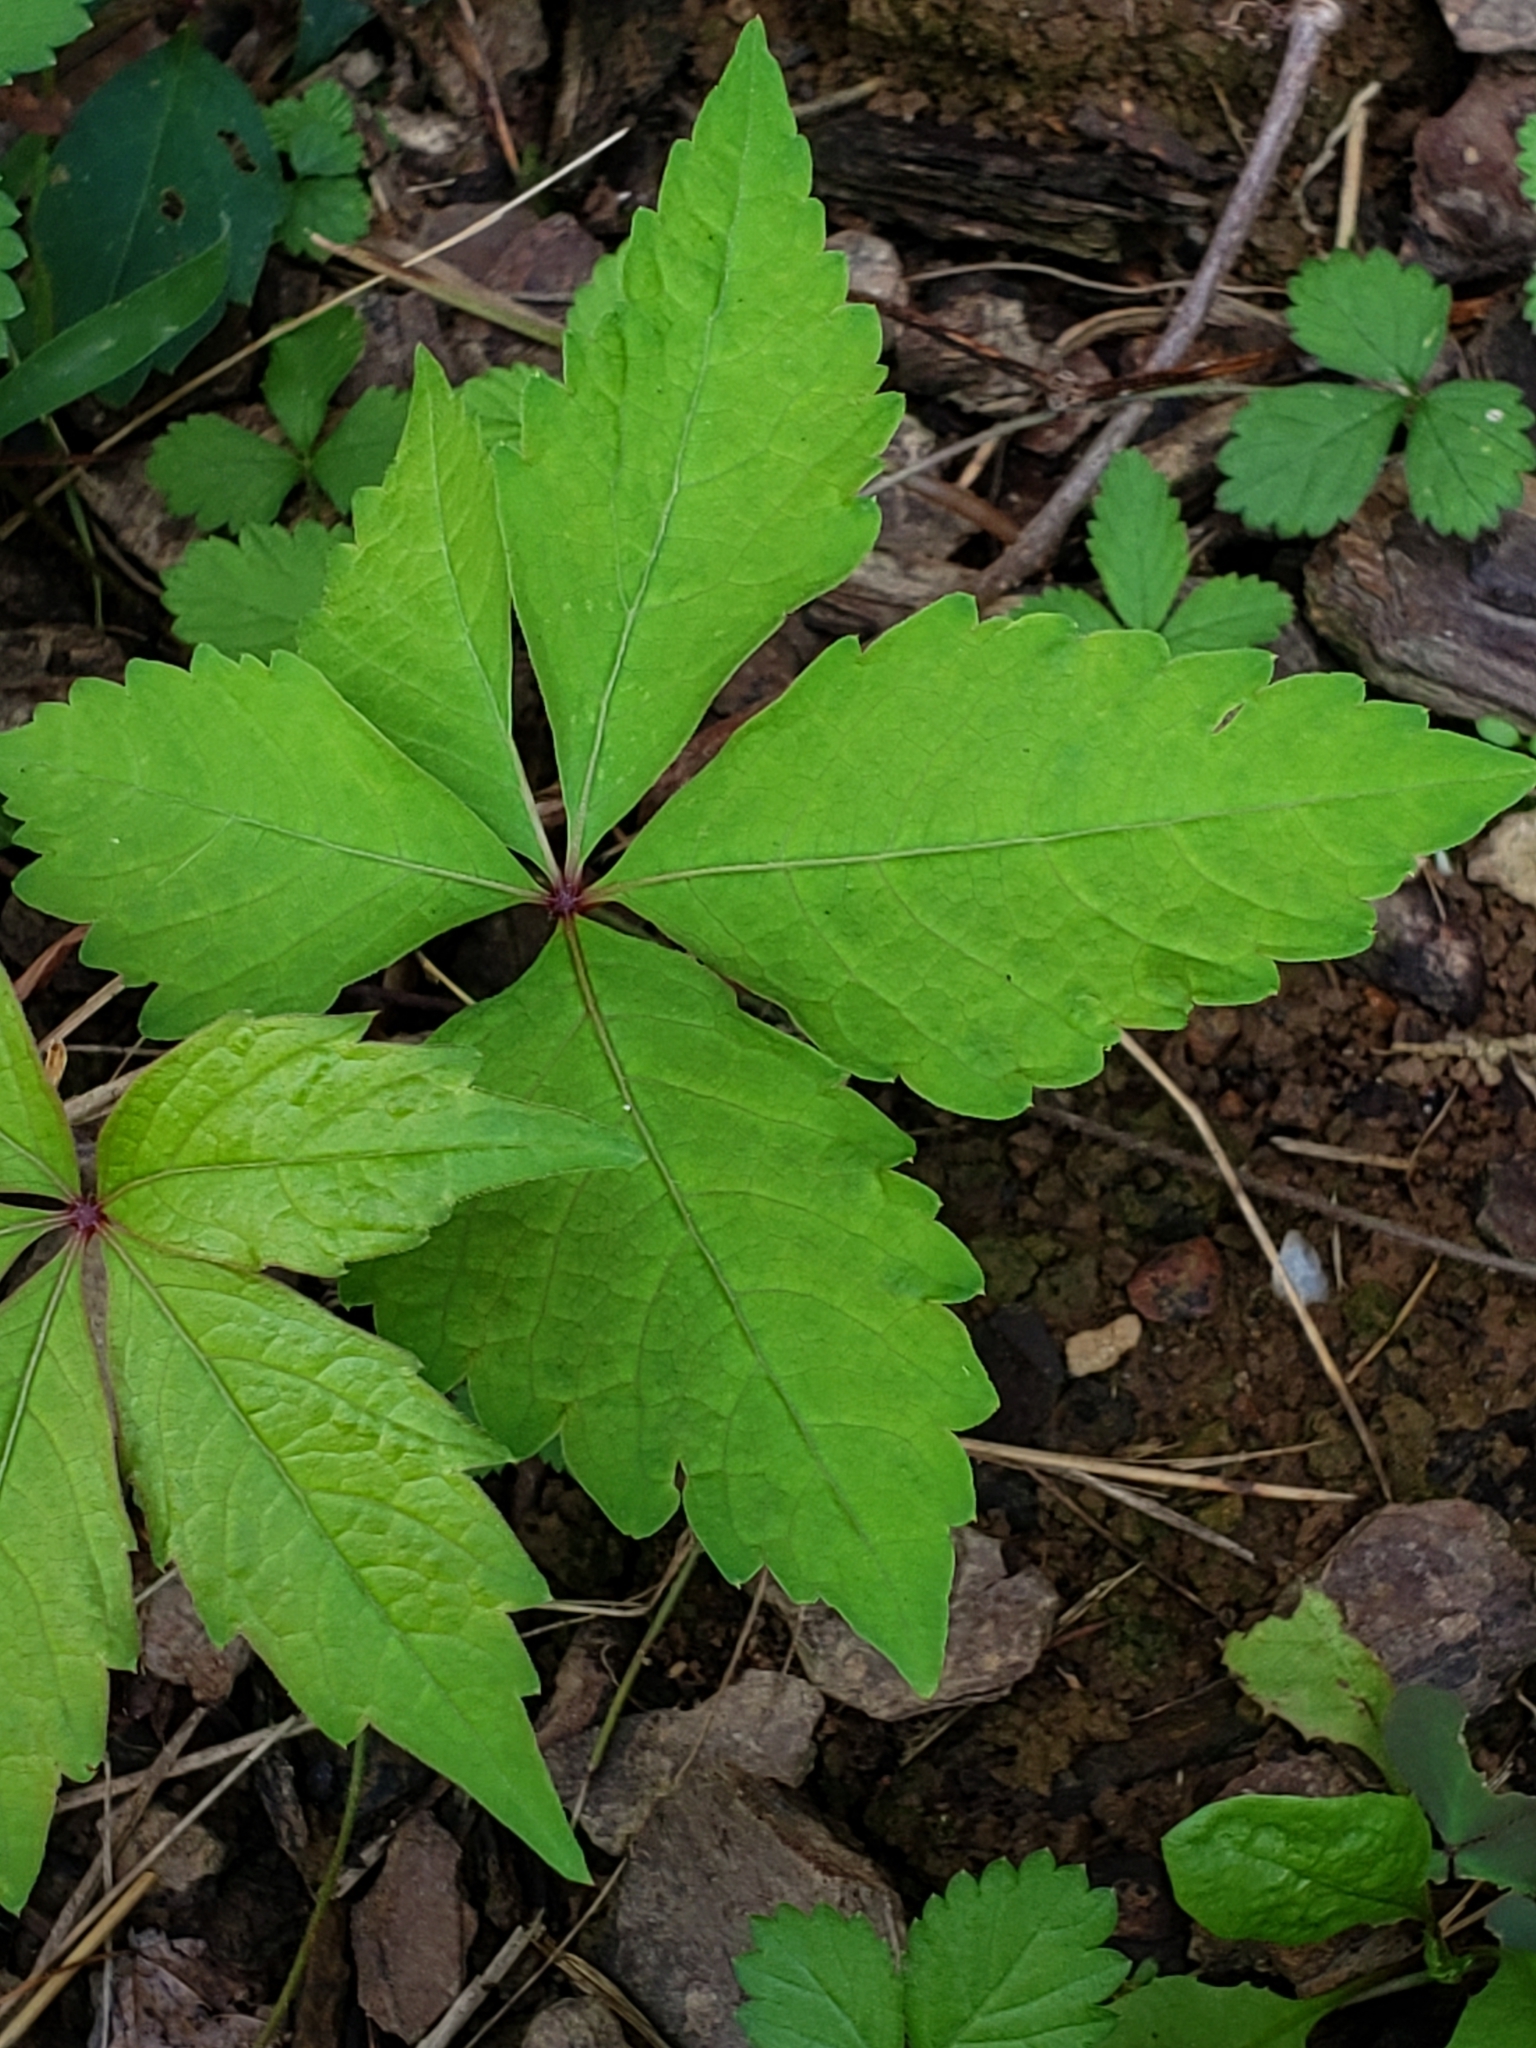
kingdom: Plantae
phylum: Tracheophyta
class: Magnoliopsida
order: Vitales
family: Vitaceae
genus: Parthenocissus
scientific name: Parthenocissus quinquefolia
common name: Virginia-creeper
